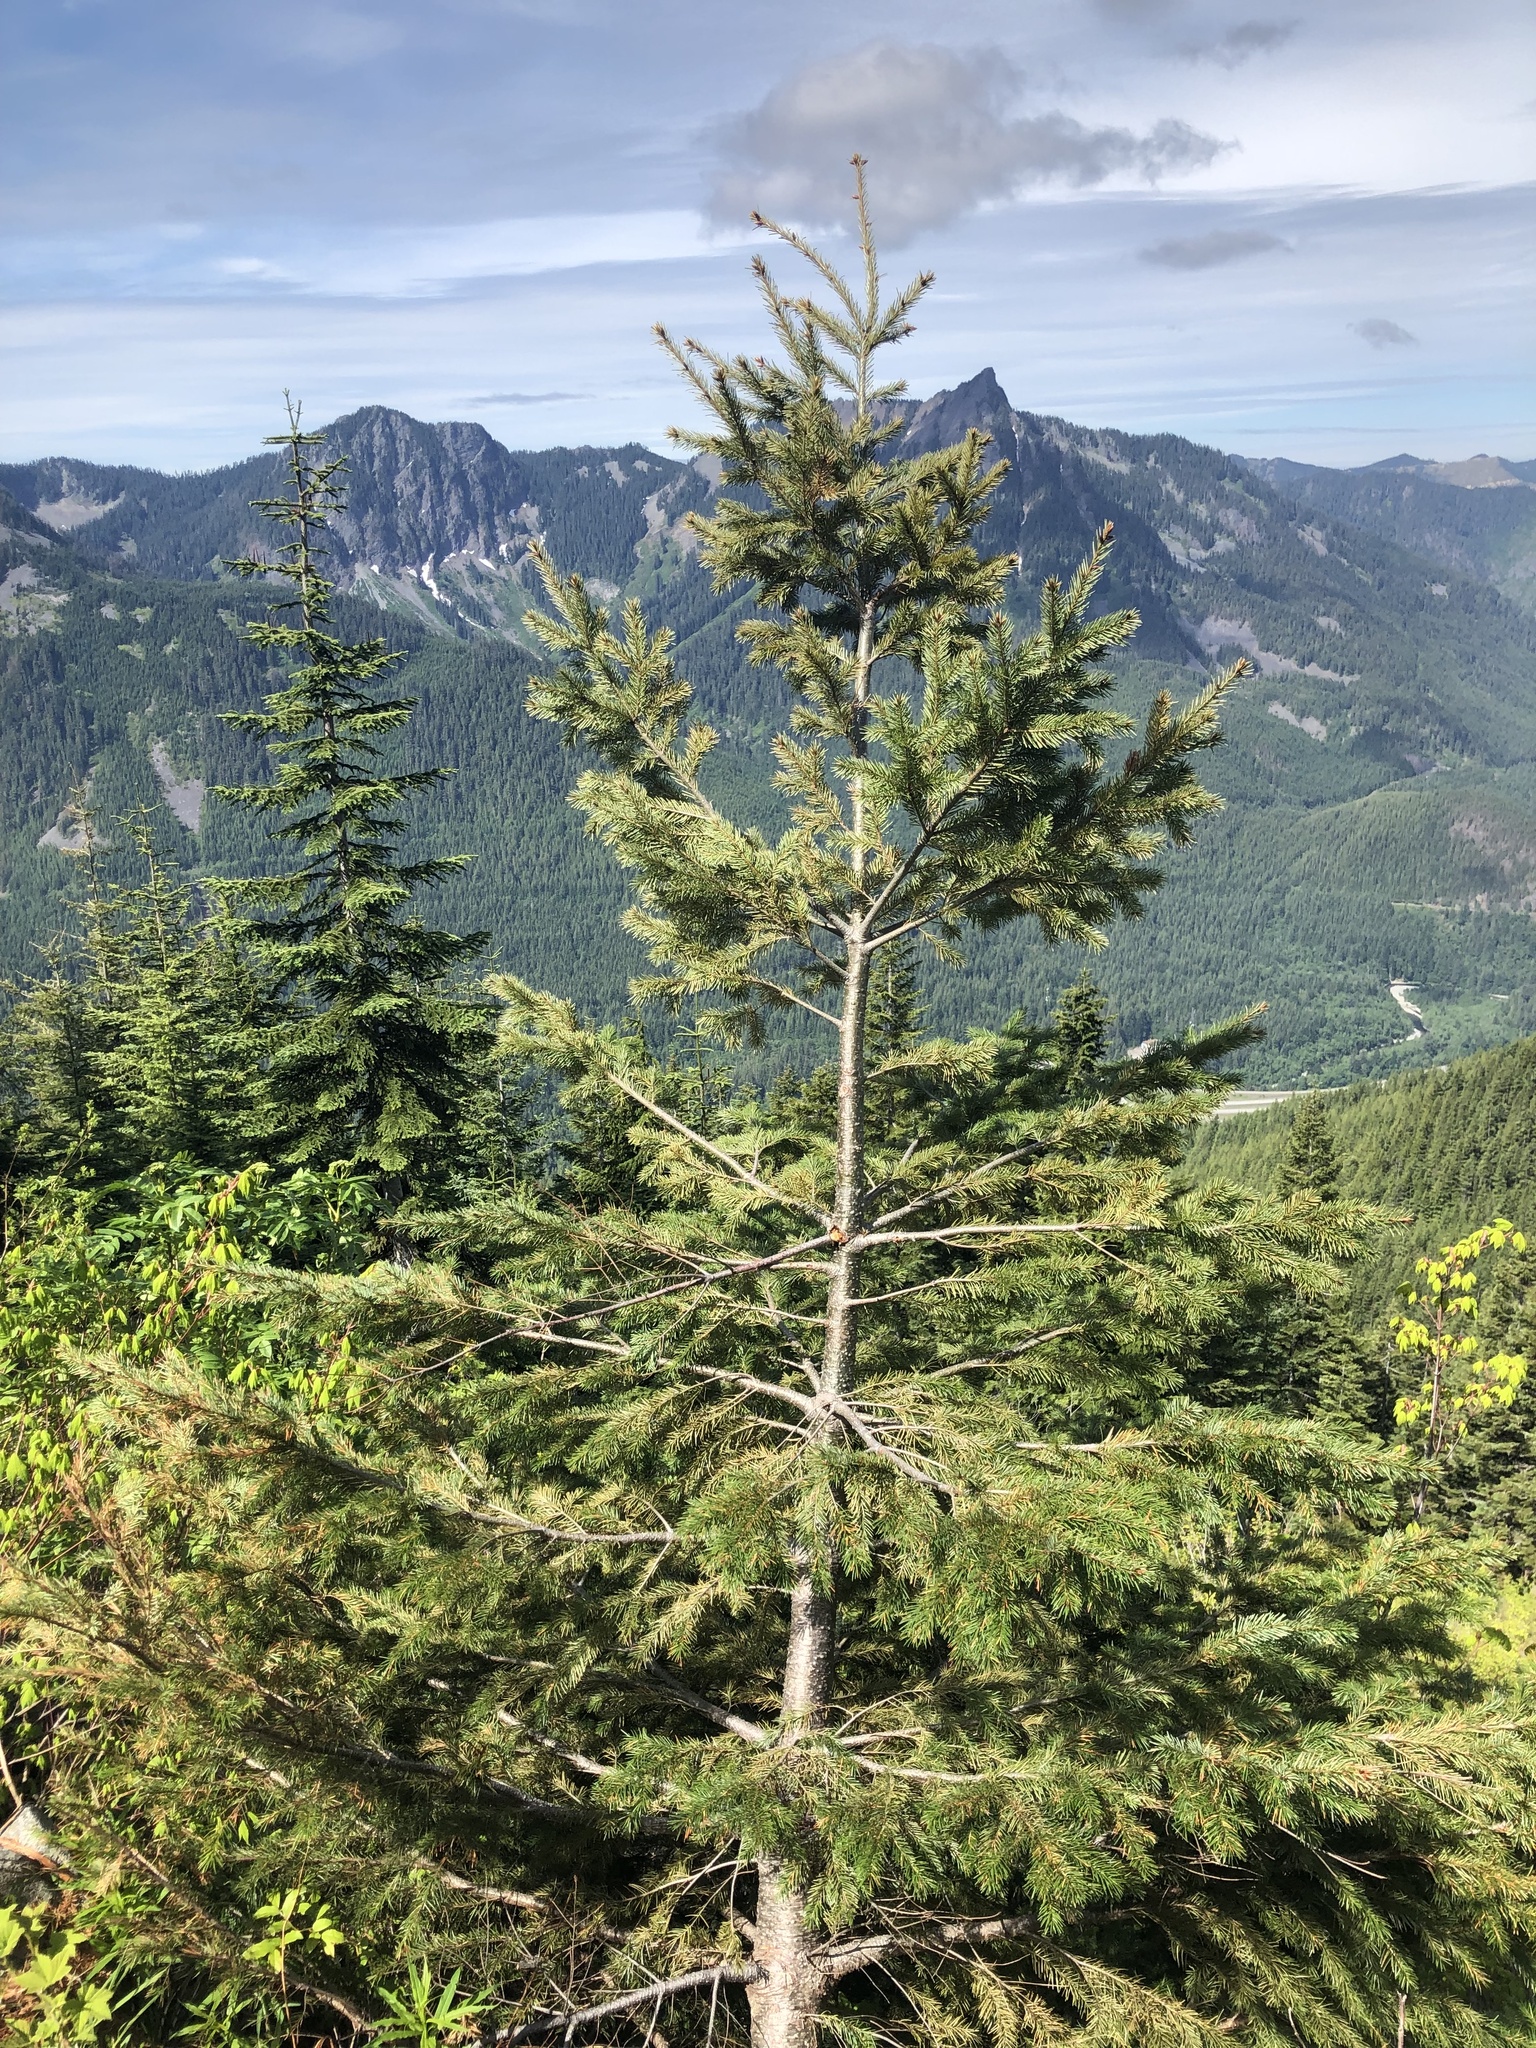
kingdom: Plantae
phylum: Tracheophyta
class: Pinopsida
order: Pinales
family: Pinaceae
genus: Pseudotsuga
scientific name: Pseudotsuga menziesii
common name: Douglas fir
